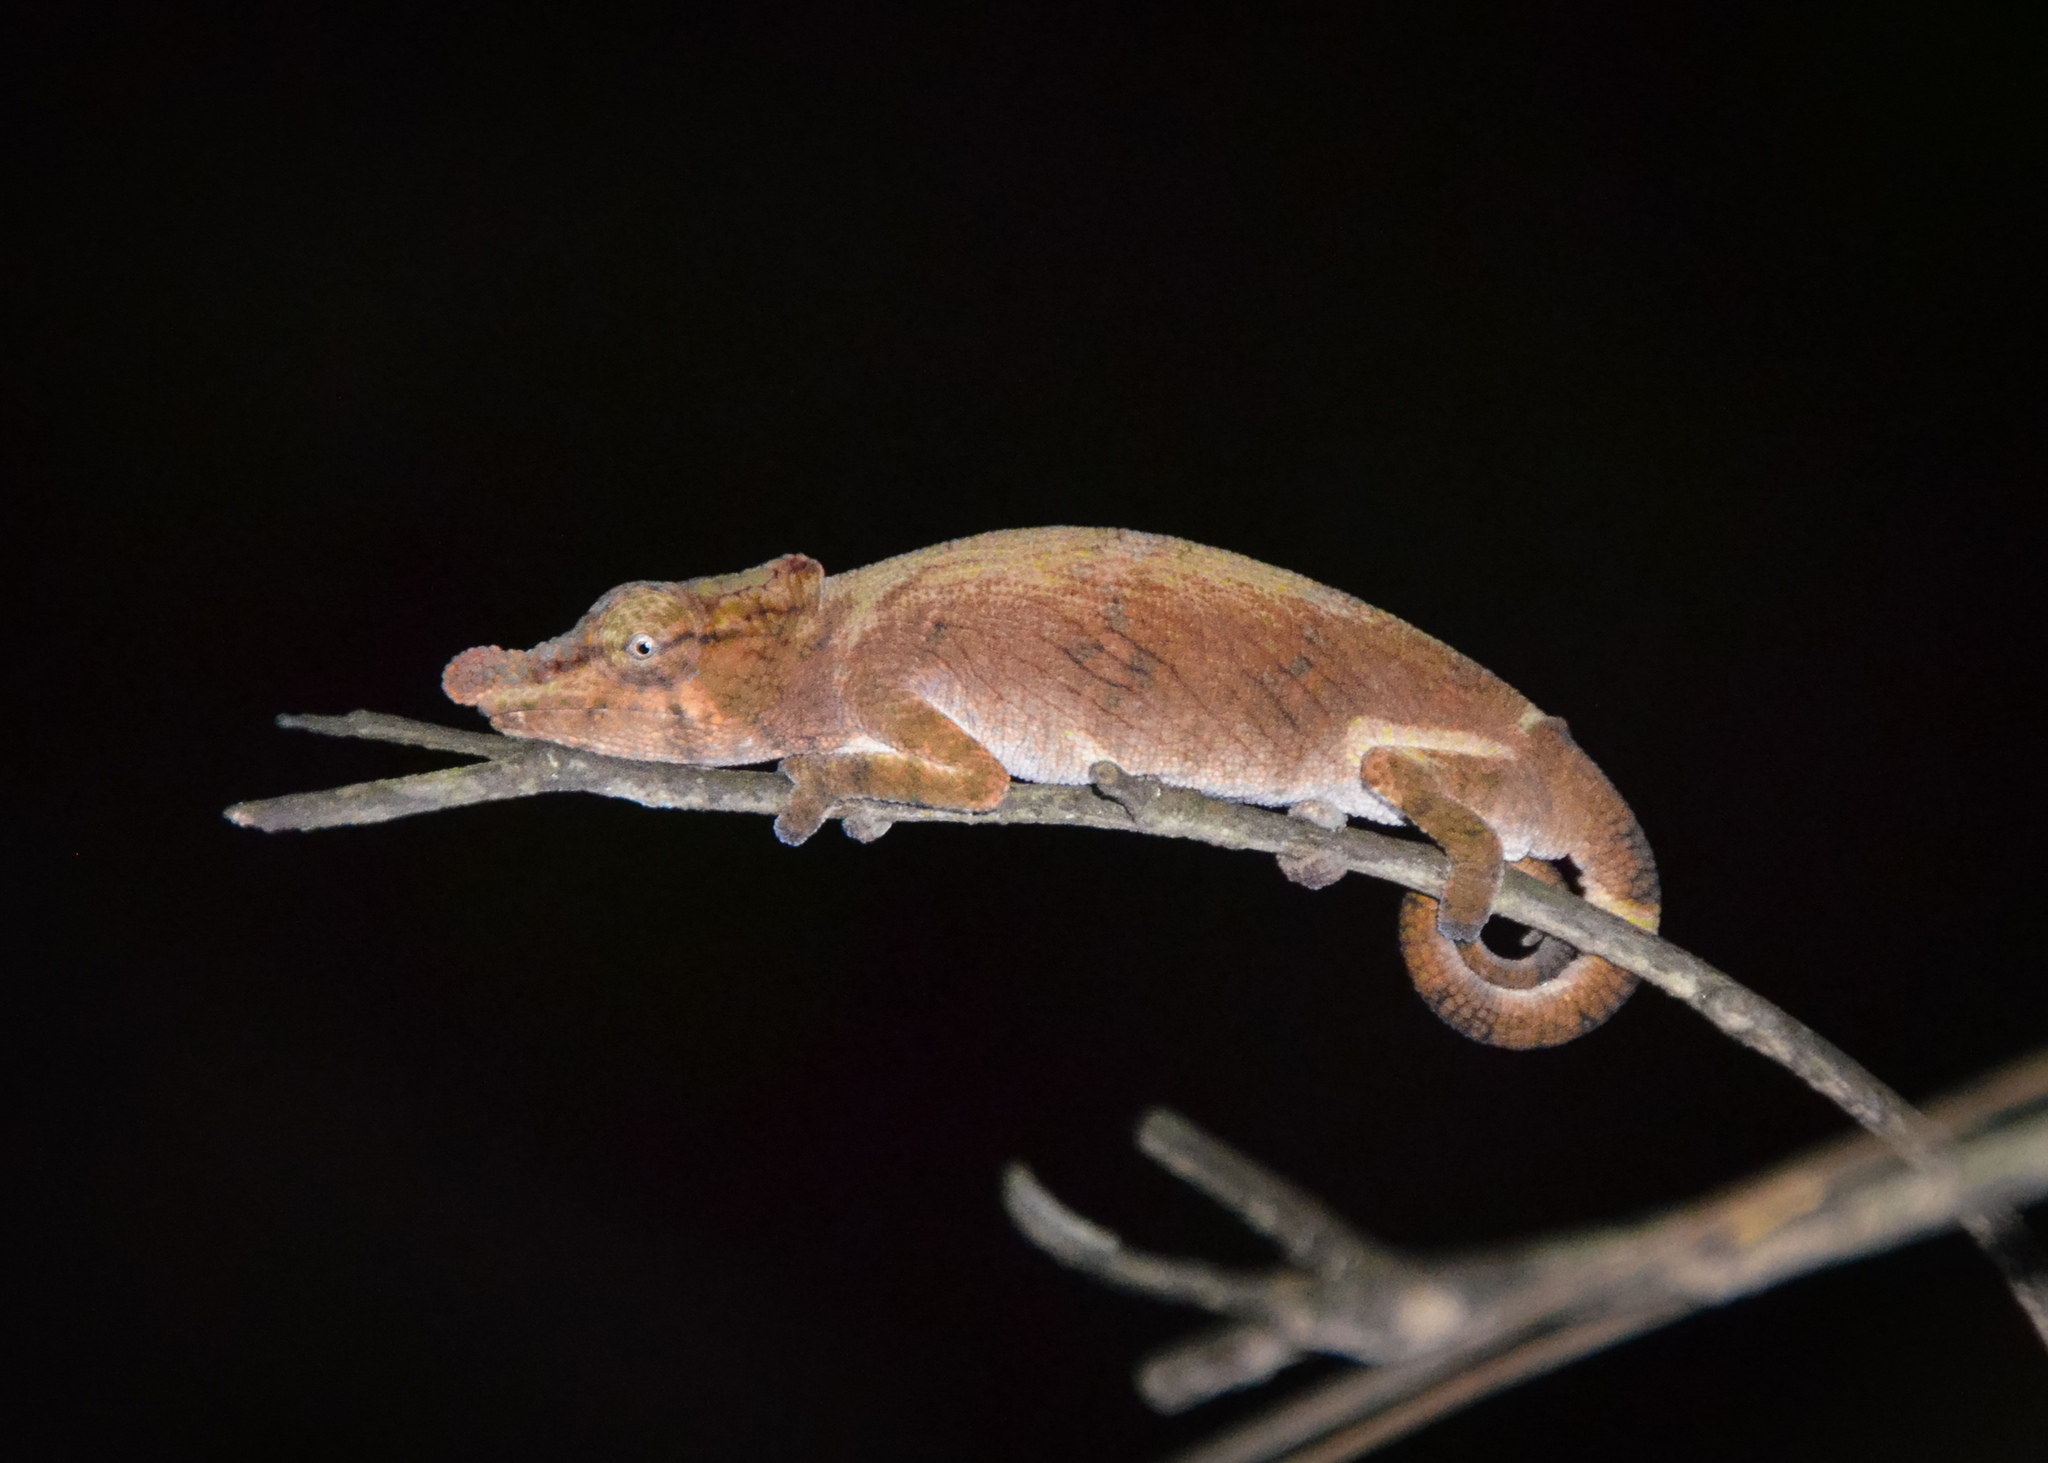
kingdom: Animalia
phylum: Chordata
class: Squamata
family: Chamaeleonidae
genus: Calumma
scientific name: Calumma nasutum
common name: Nose-horned chameleon
